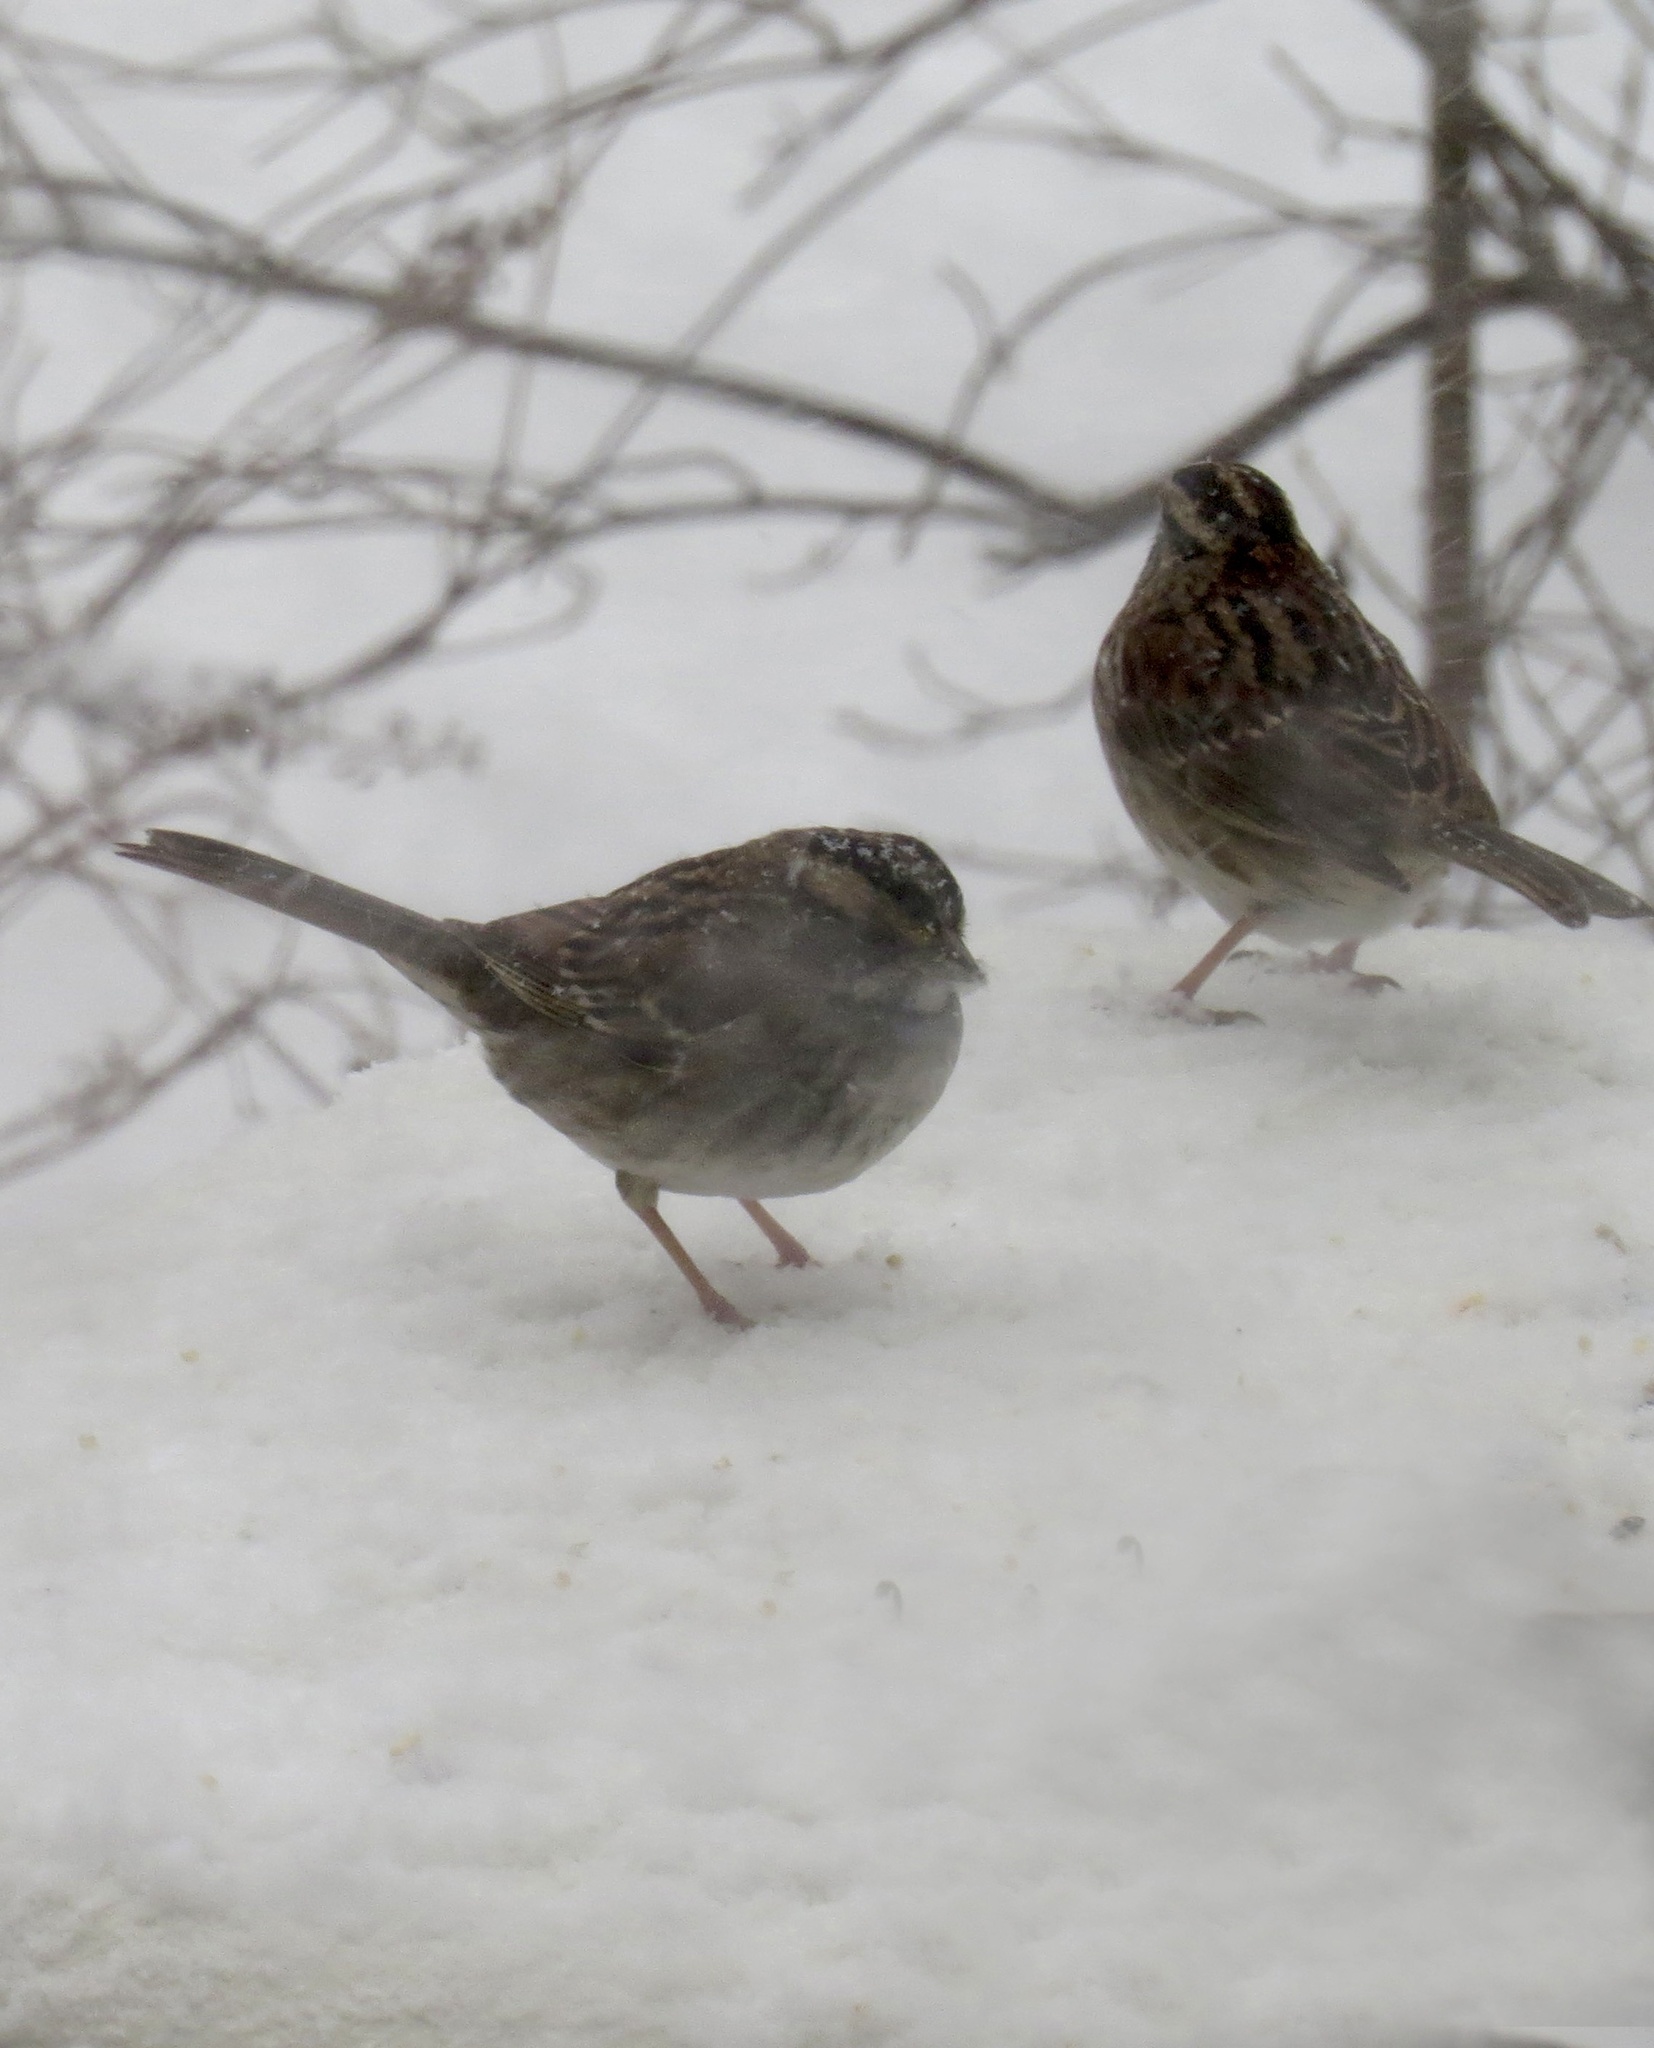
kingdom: Animalia
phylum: Chordata
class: Aves
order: Passeriformes
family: Passerellidae
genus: Zonotrichia
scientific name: Zonotrichia albicollis
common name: White-throated sparrow
